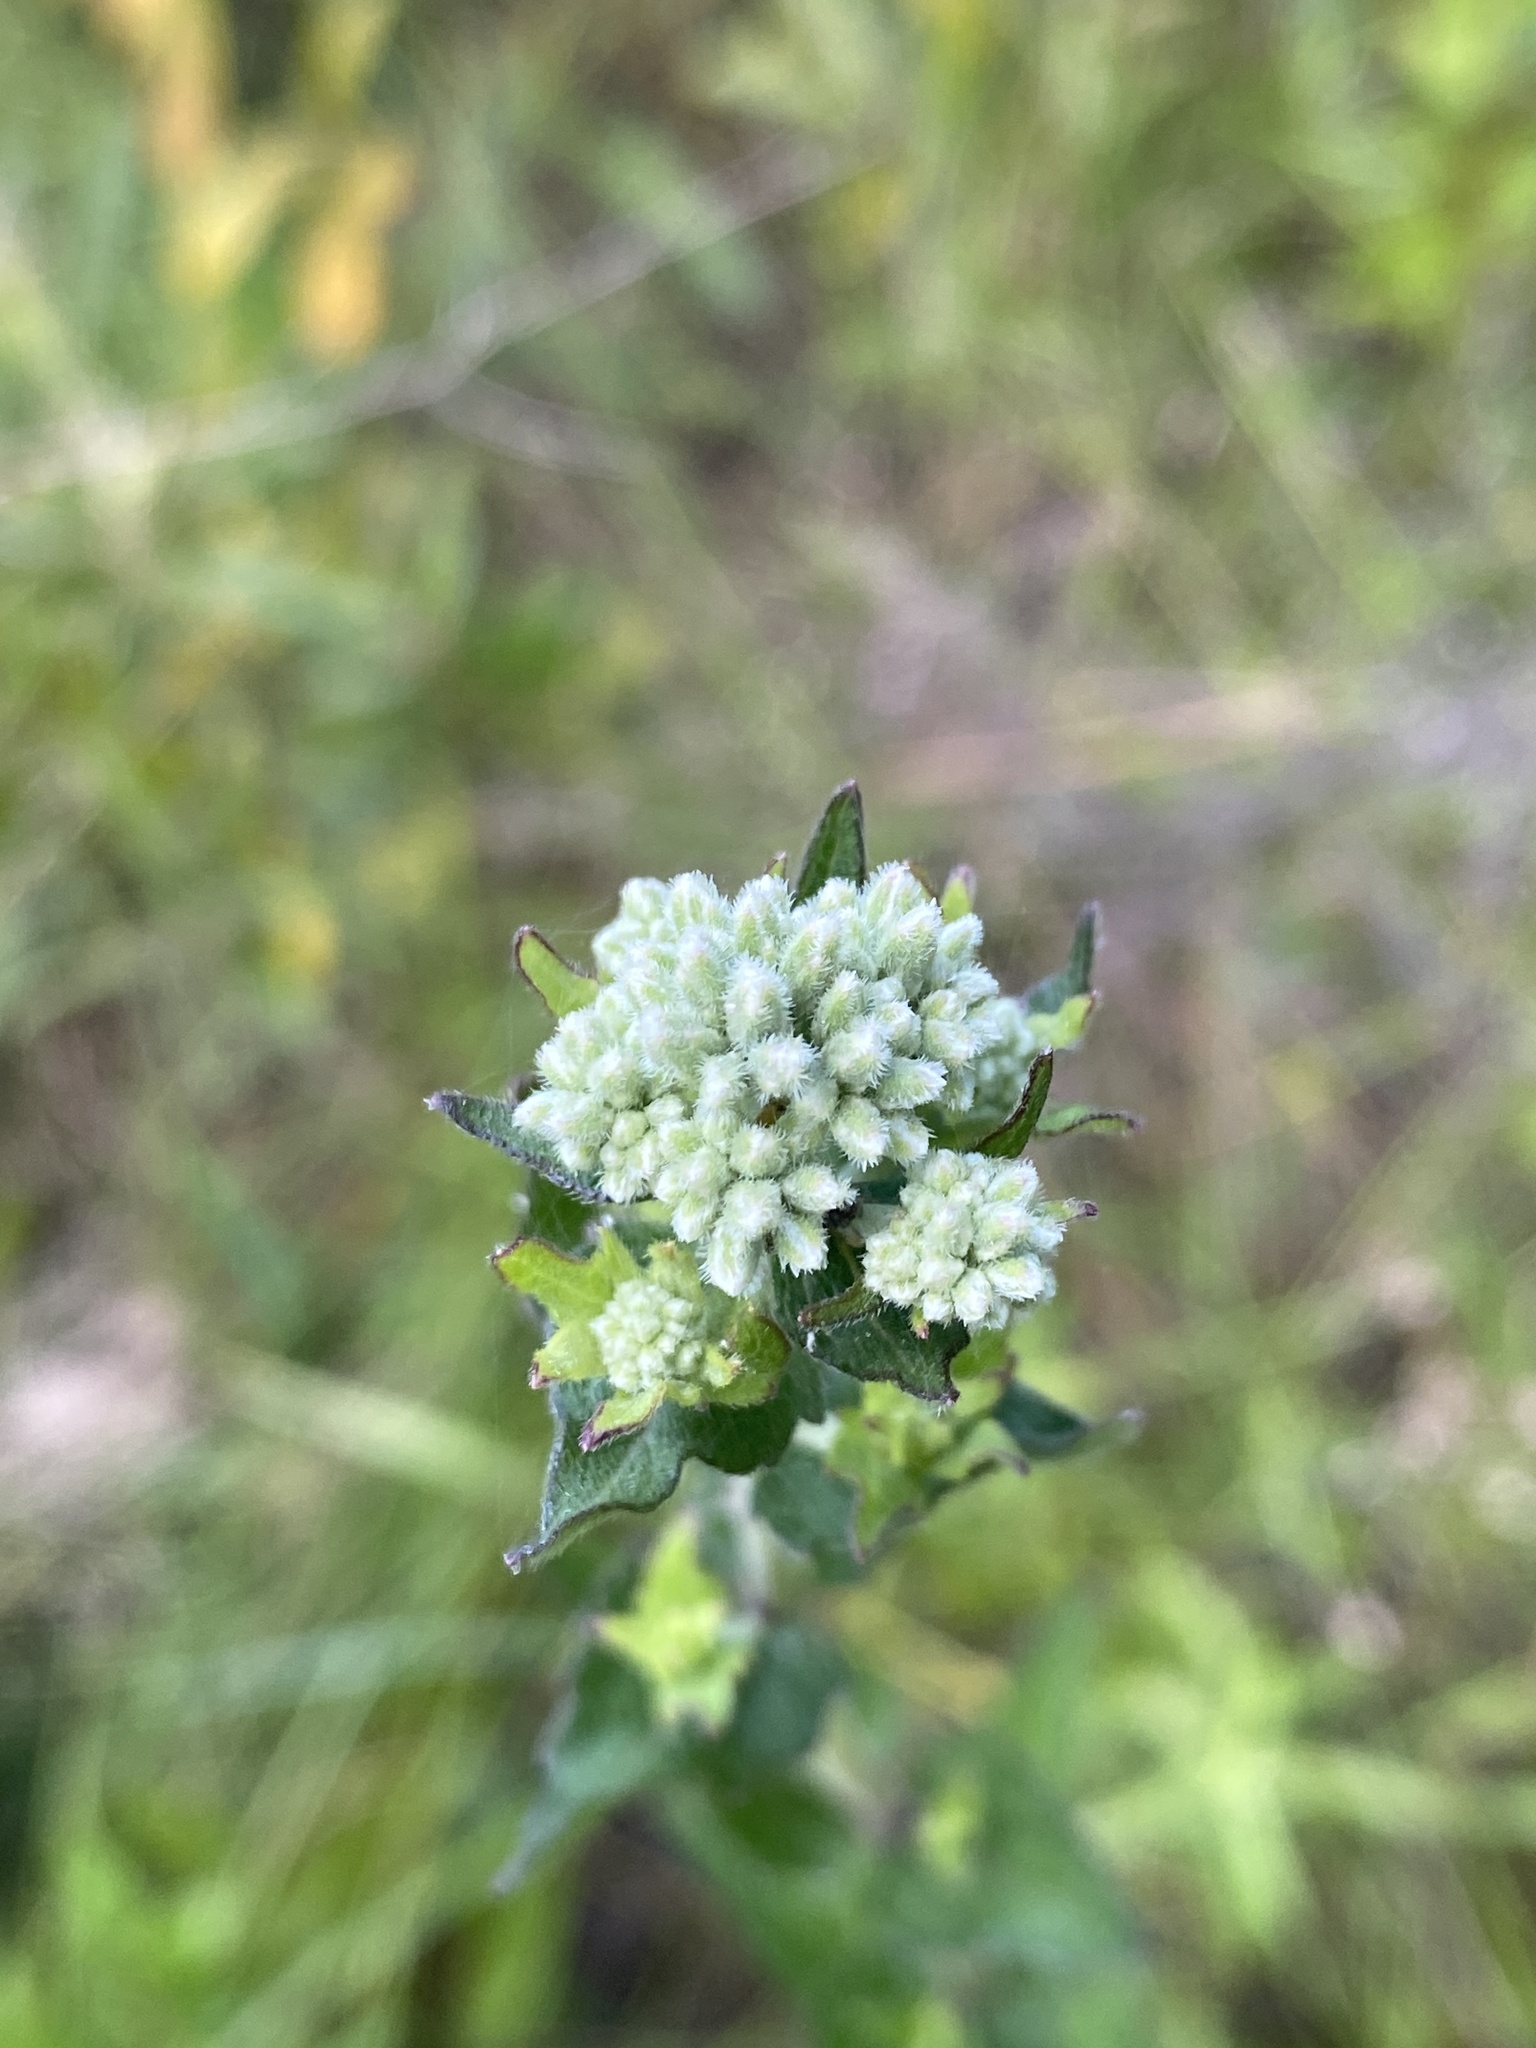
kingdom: Plantae
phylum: Tracheophyta
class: Magnoliopsida
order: Asterales
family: Asteraceae
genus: Eupatorium
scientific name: Eupatorium pilosum
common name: Rough boneset
